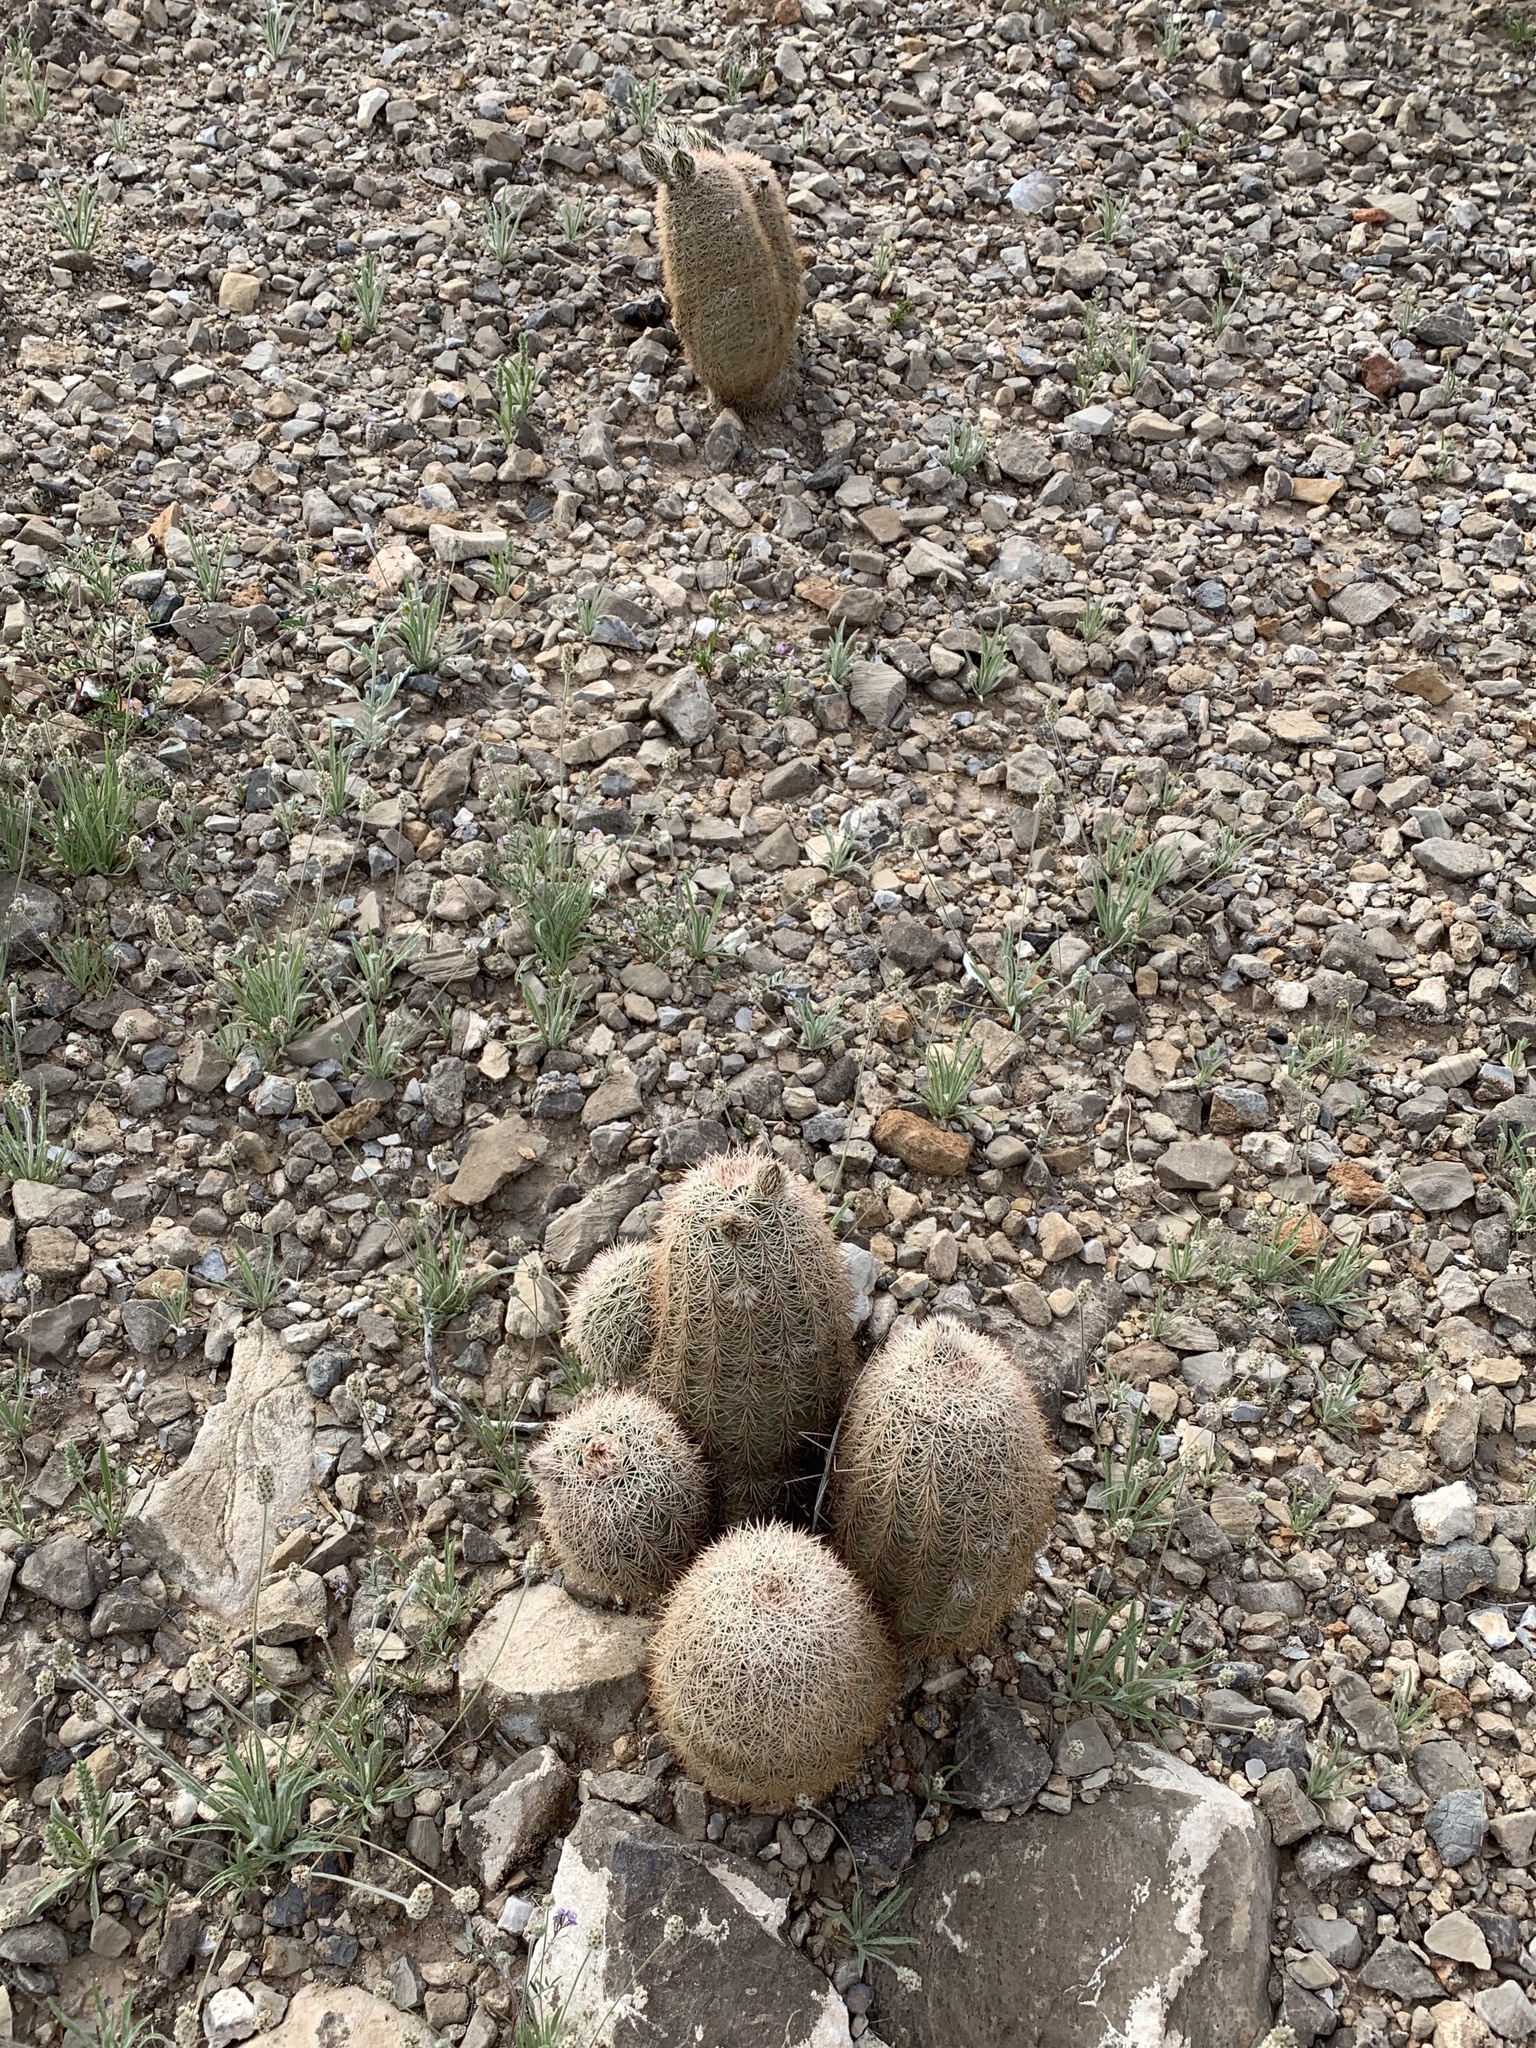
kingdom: Plantae
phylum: Tracheophyta
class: Magnoliopsida
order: Caryophyllales
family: Cactaceae
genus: Echinocereus
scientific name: Echinocereus dasyacanthus
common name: Spiny hedgehog cactus
